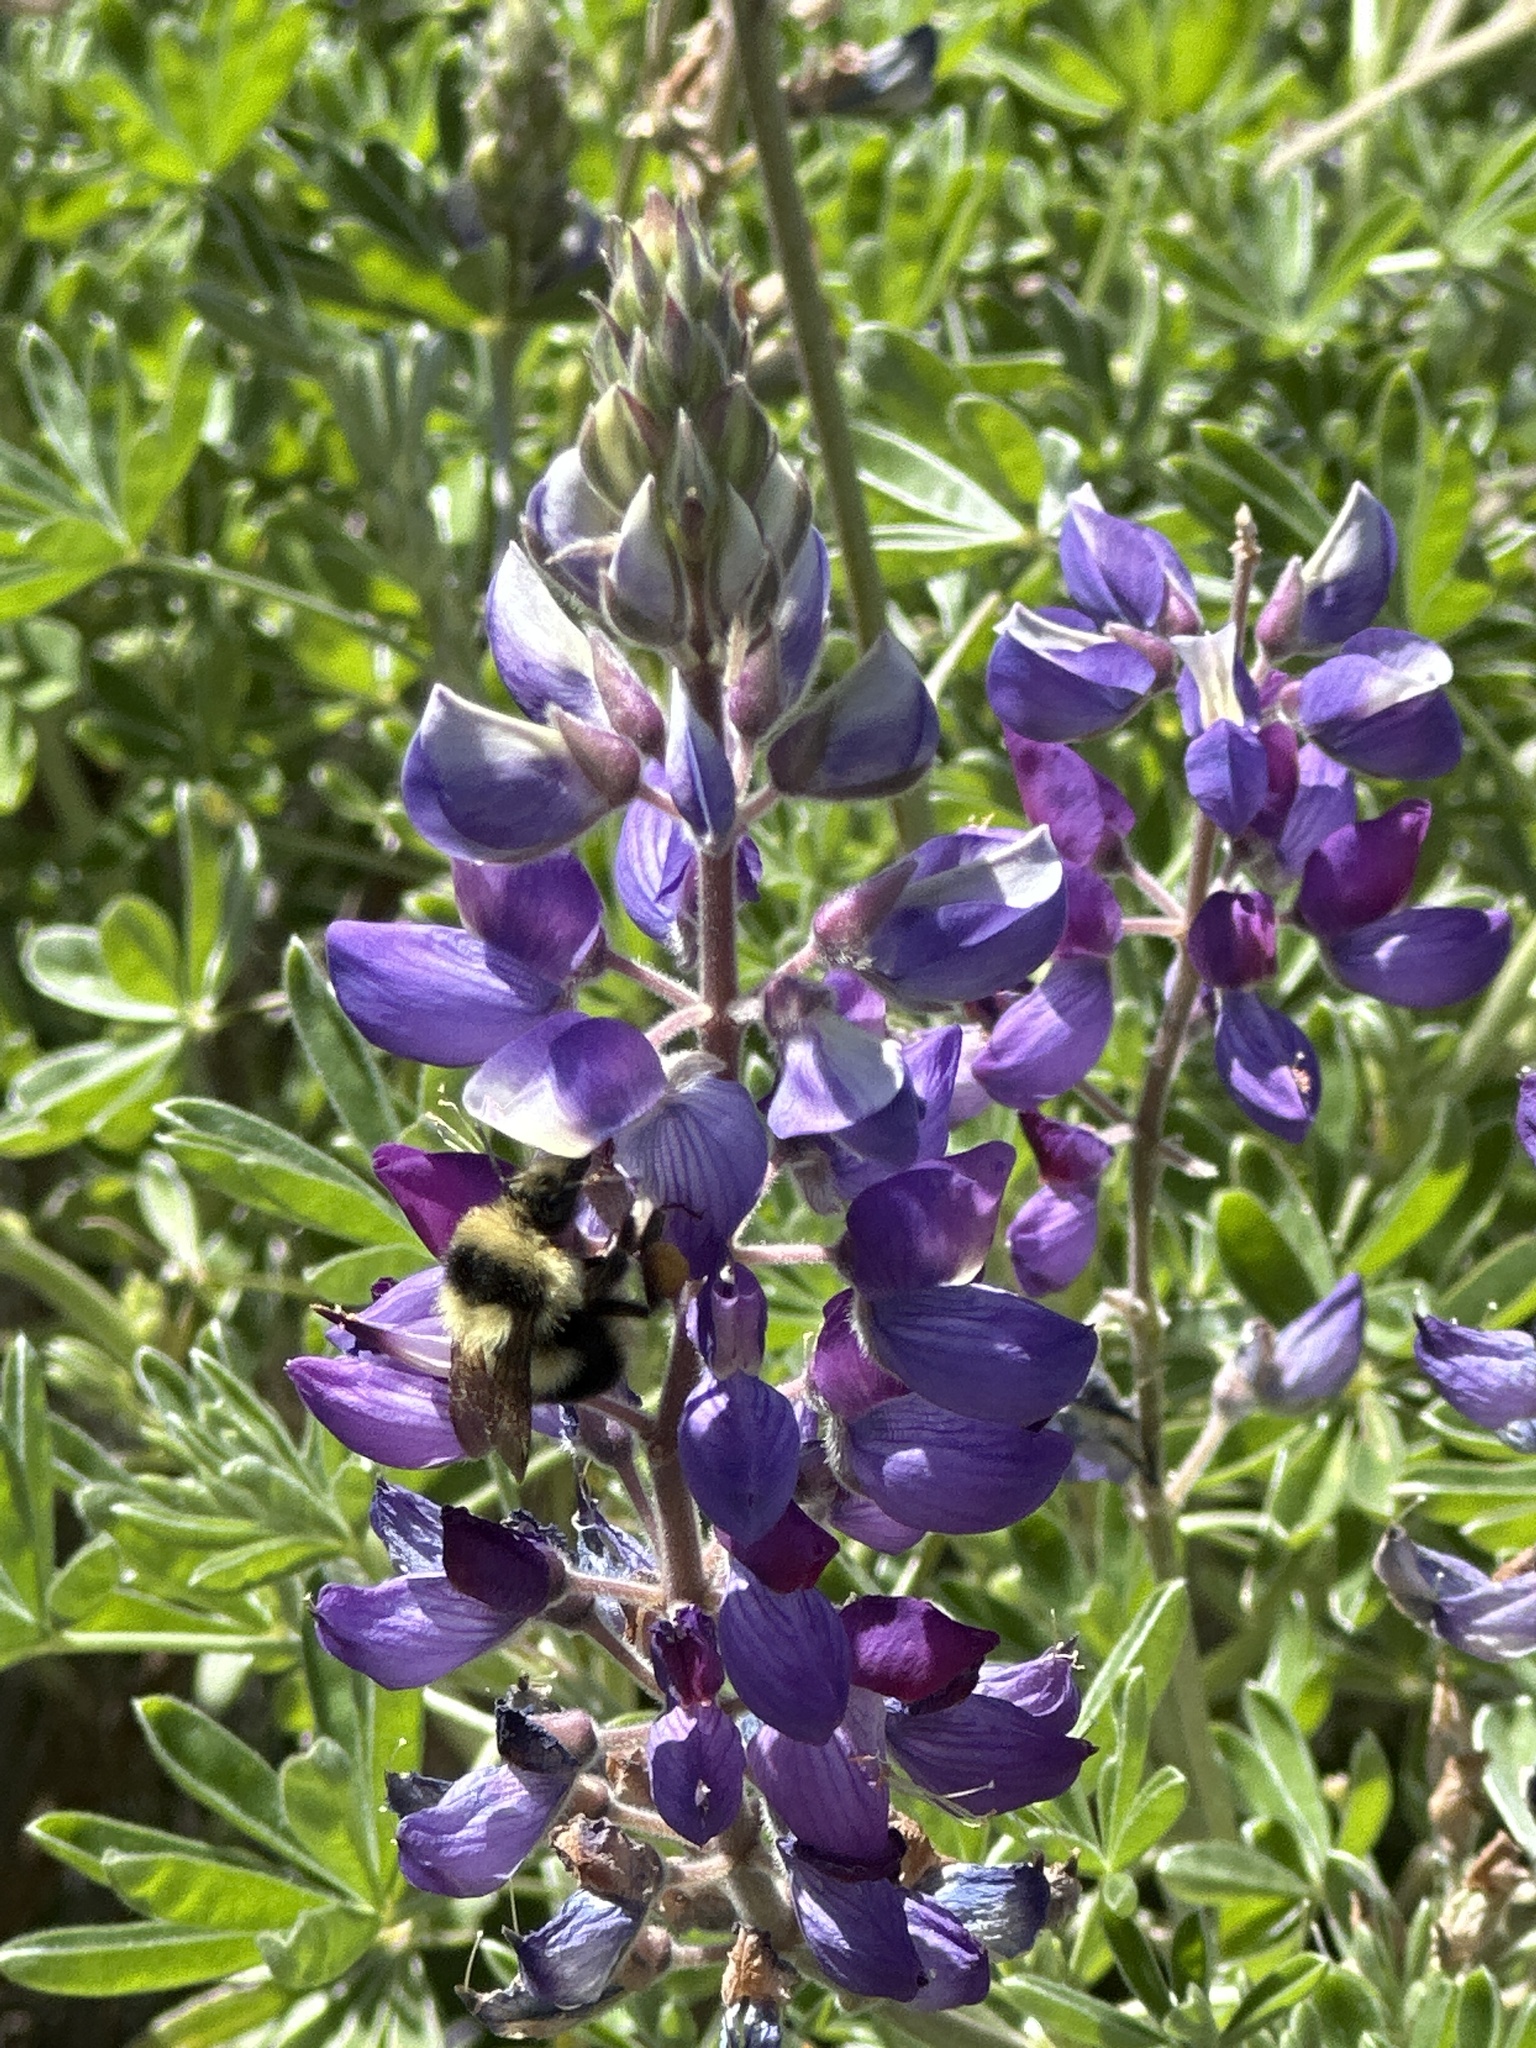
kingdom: Animalia
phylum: Arthropoda
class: Insecta
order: Hymenoptera
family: Apidae
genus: Bombus
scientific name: Bombus melanopygus
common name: Black tail bumble bee
